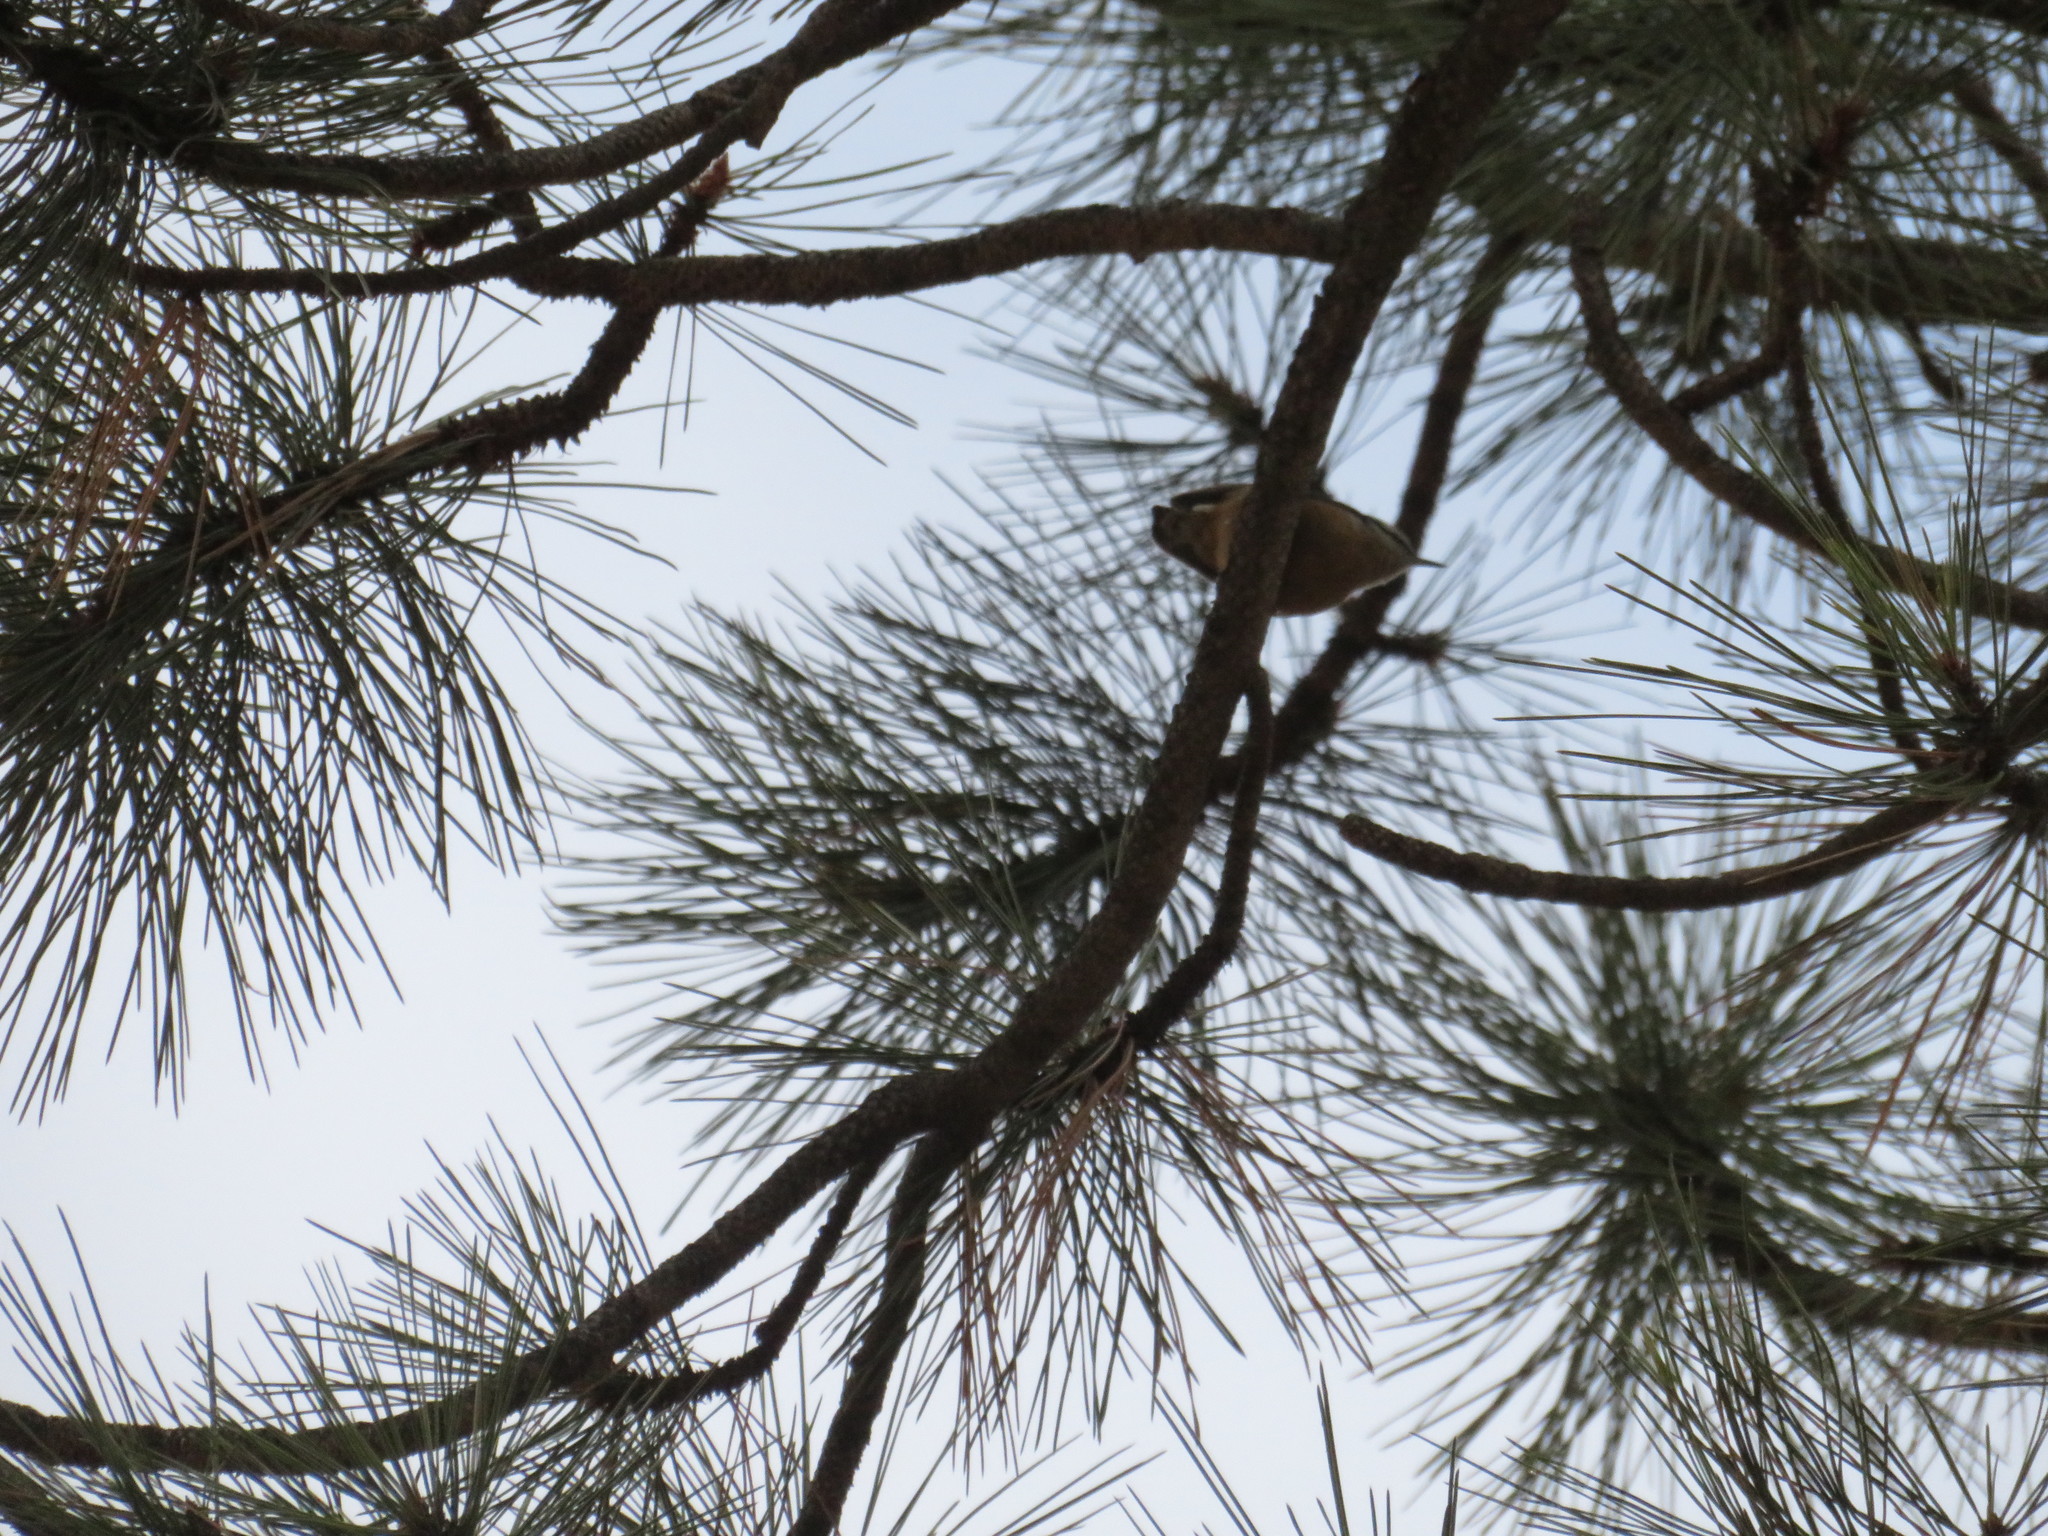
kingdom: Animalia
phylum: Chordata
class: Aves
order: Passeriformes
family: Sittidae
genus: Sitta
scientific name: Sitta canadensis
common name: Red-breasted nuthatch
